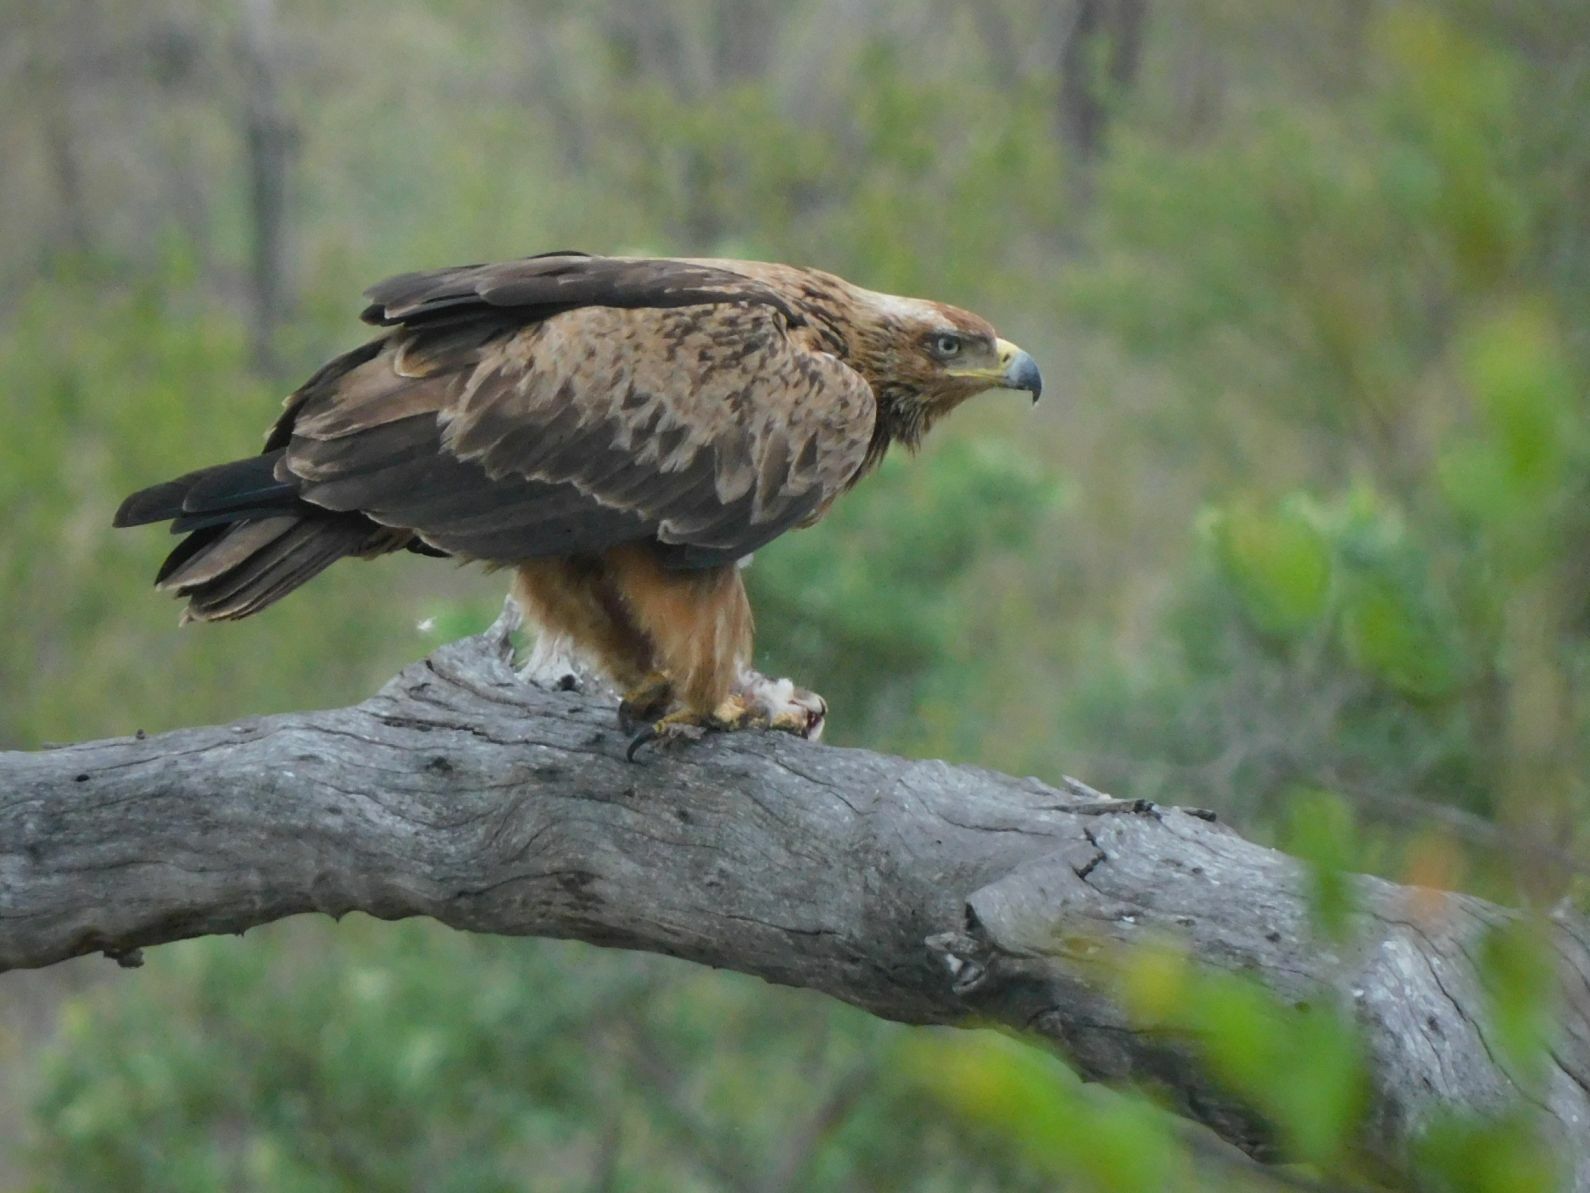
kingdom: Animalia
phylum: Chordata
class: Aves
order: Accipitriformes
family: Accipitridae
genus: Aquila
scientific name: Aquila rapax
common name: Tawny eagle
